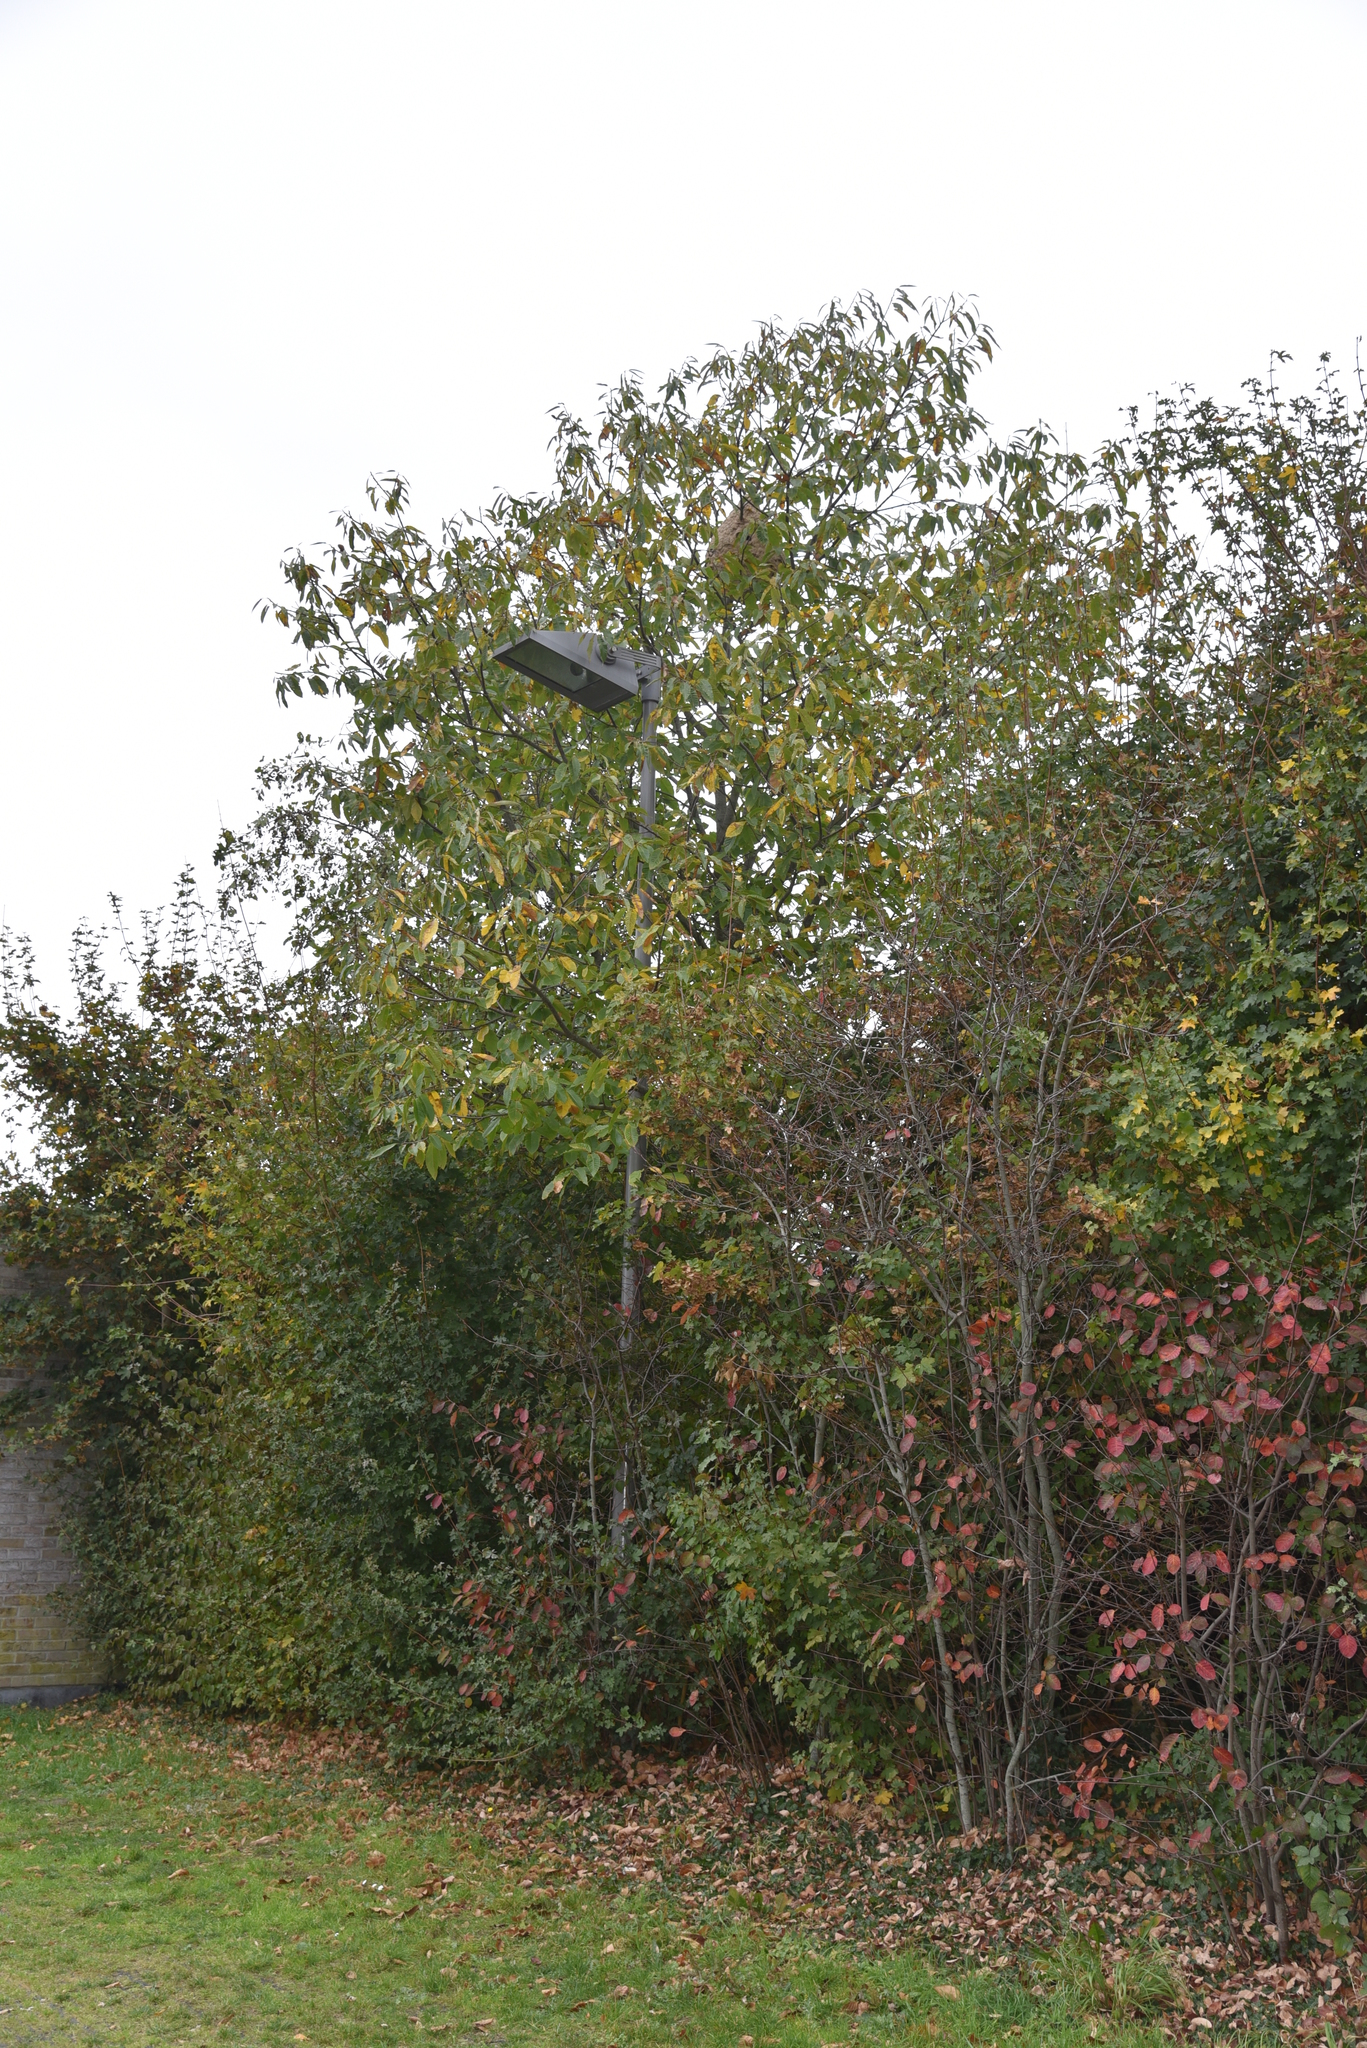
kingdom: Animalia
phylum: Arthropoda
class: Insecta
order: Hymenoptera
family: Vespidae
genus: Vespa
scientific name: Vespa velutina
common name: Asian hornet
